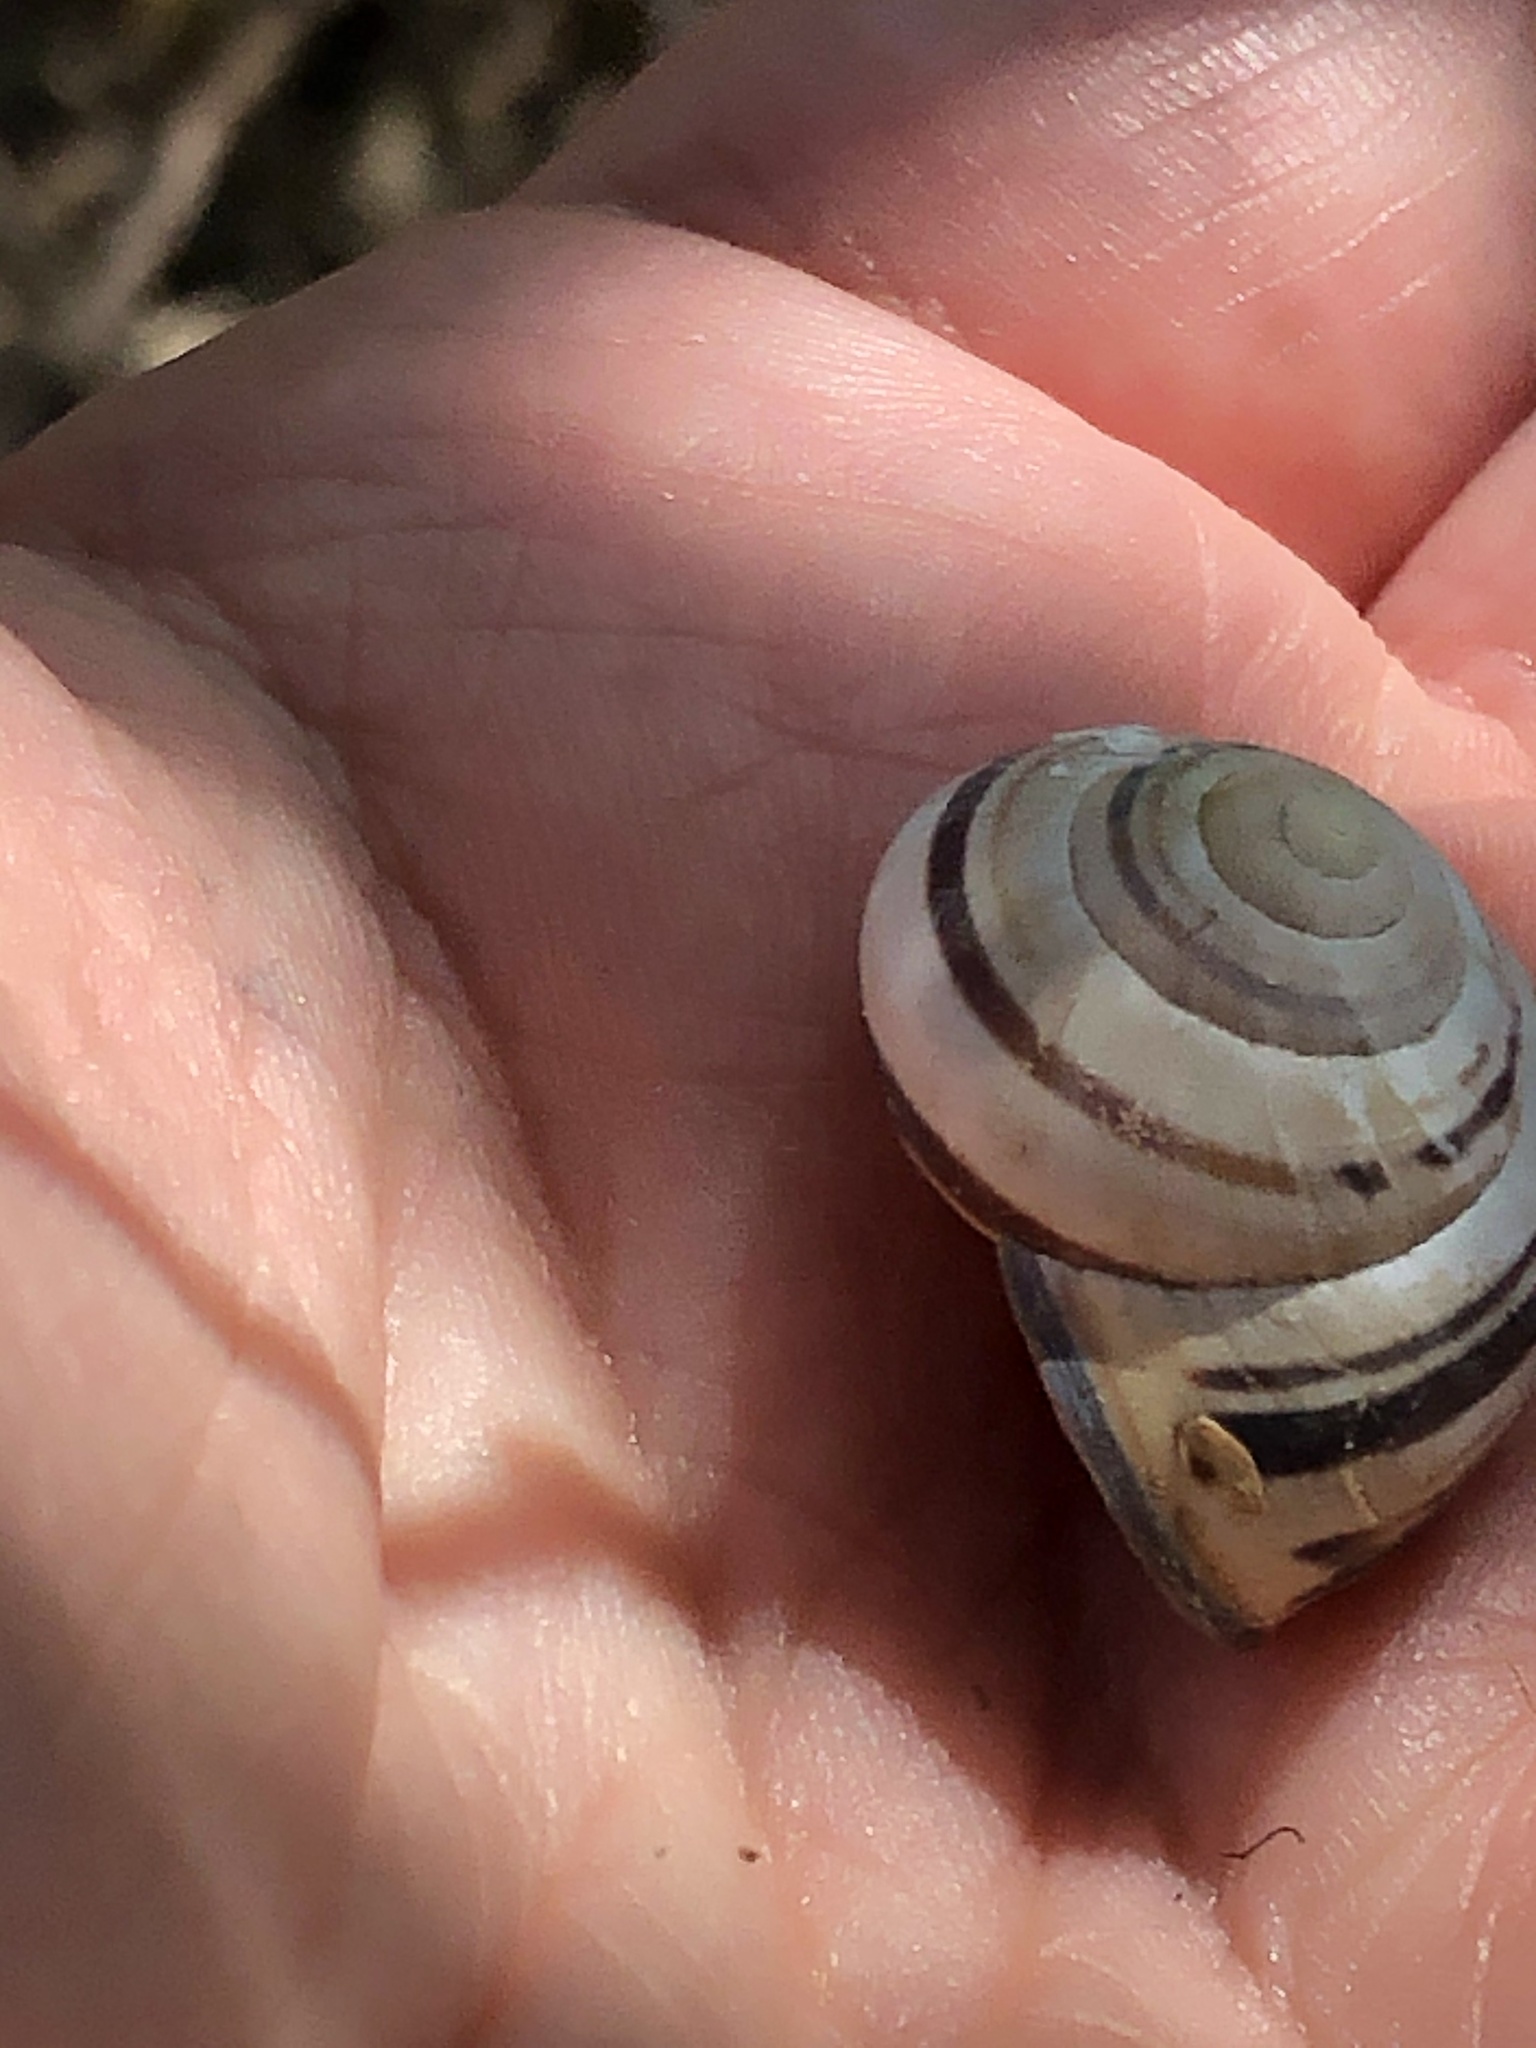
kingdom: Animalia
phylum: Mollusca
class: Gastropoda
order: Stylommatophora
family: Helicidae
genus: Cepaea
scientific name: Cepaea nemoralis
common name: Grovesnail
